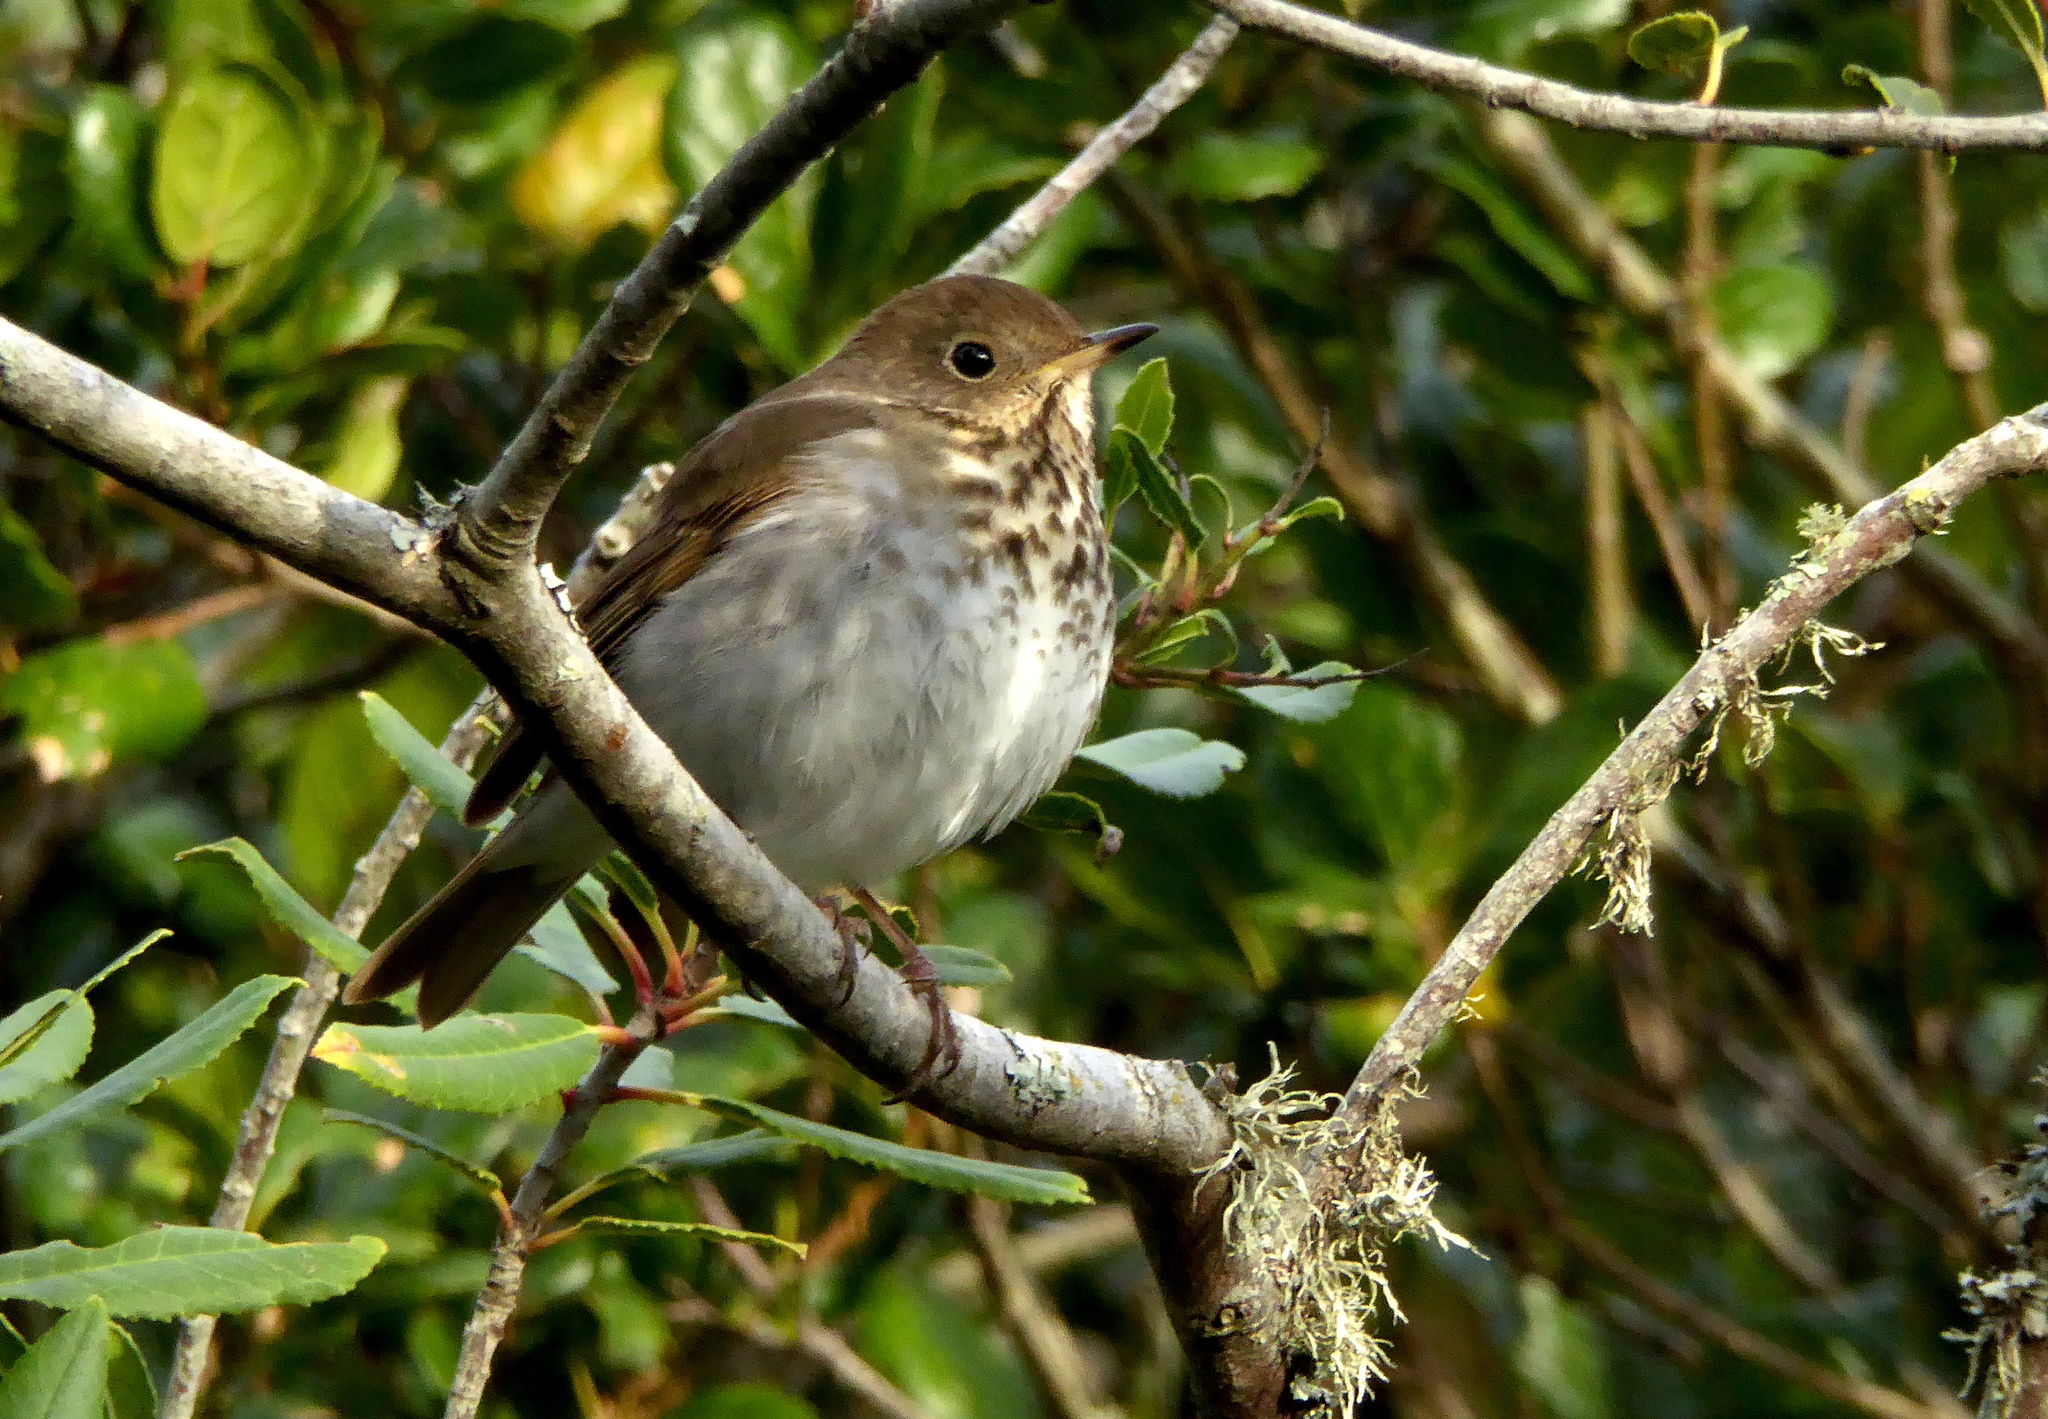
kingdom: Animalia
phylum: Chordata
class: Aves
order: Passeriformes
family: Turdidae
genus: Catharus
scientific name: Catharus guttatus
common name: Hermit thrush
